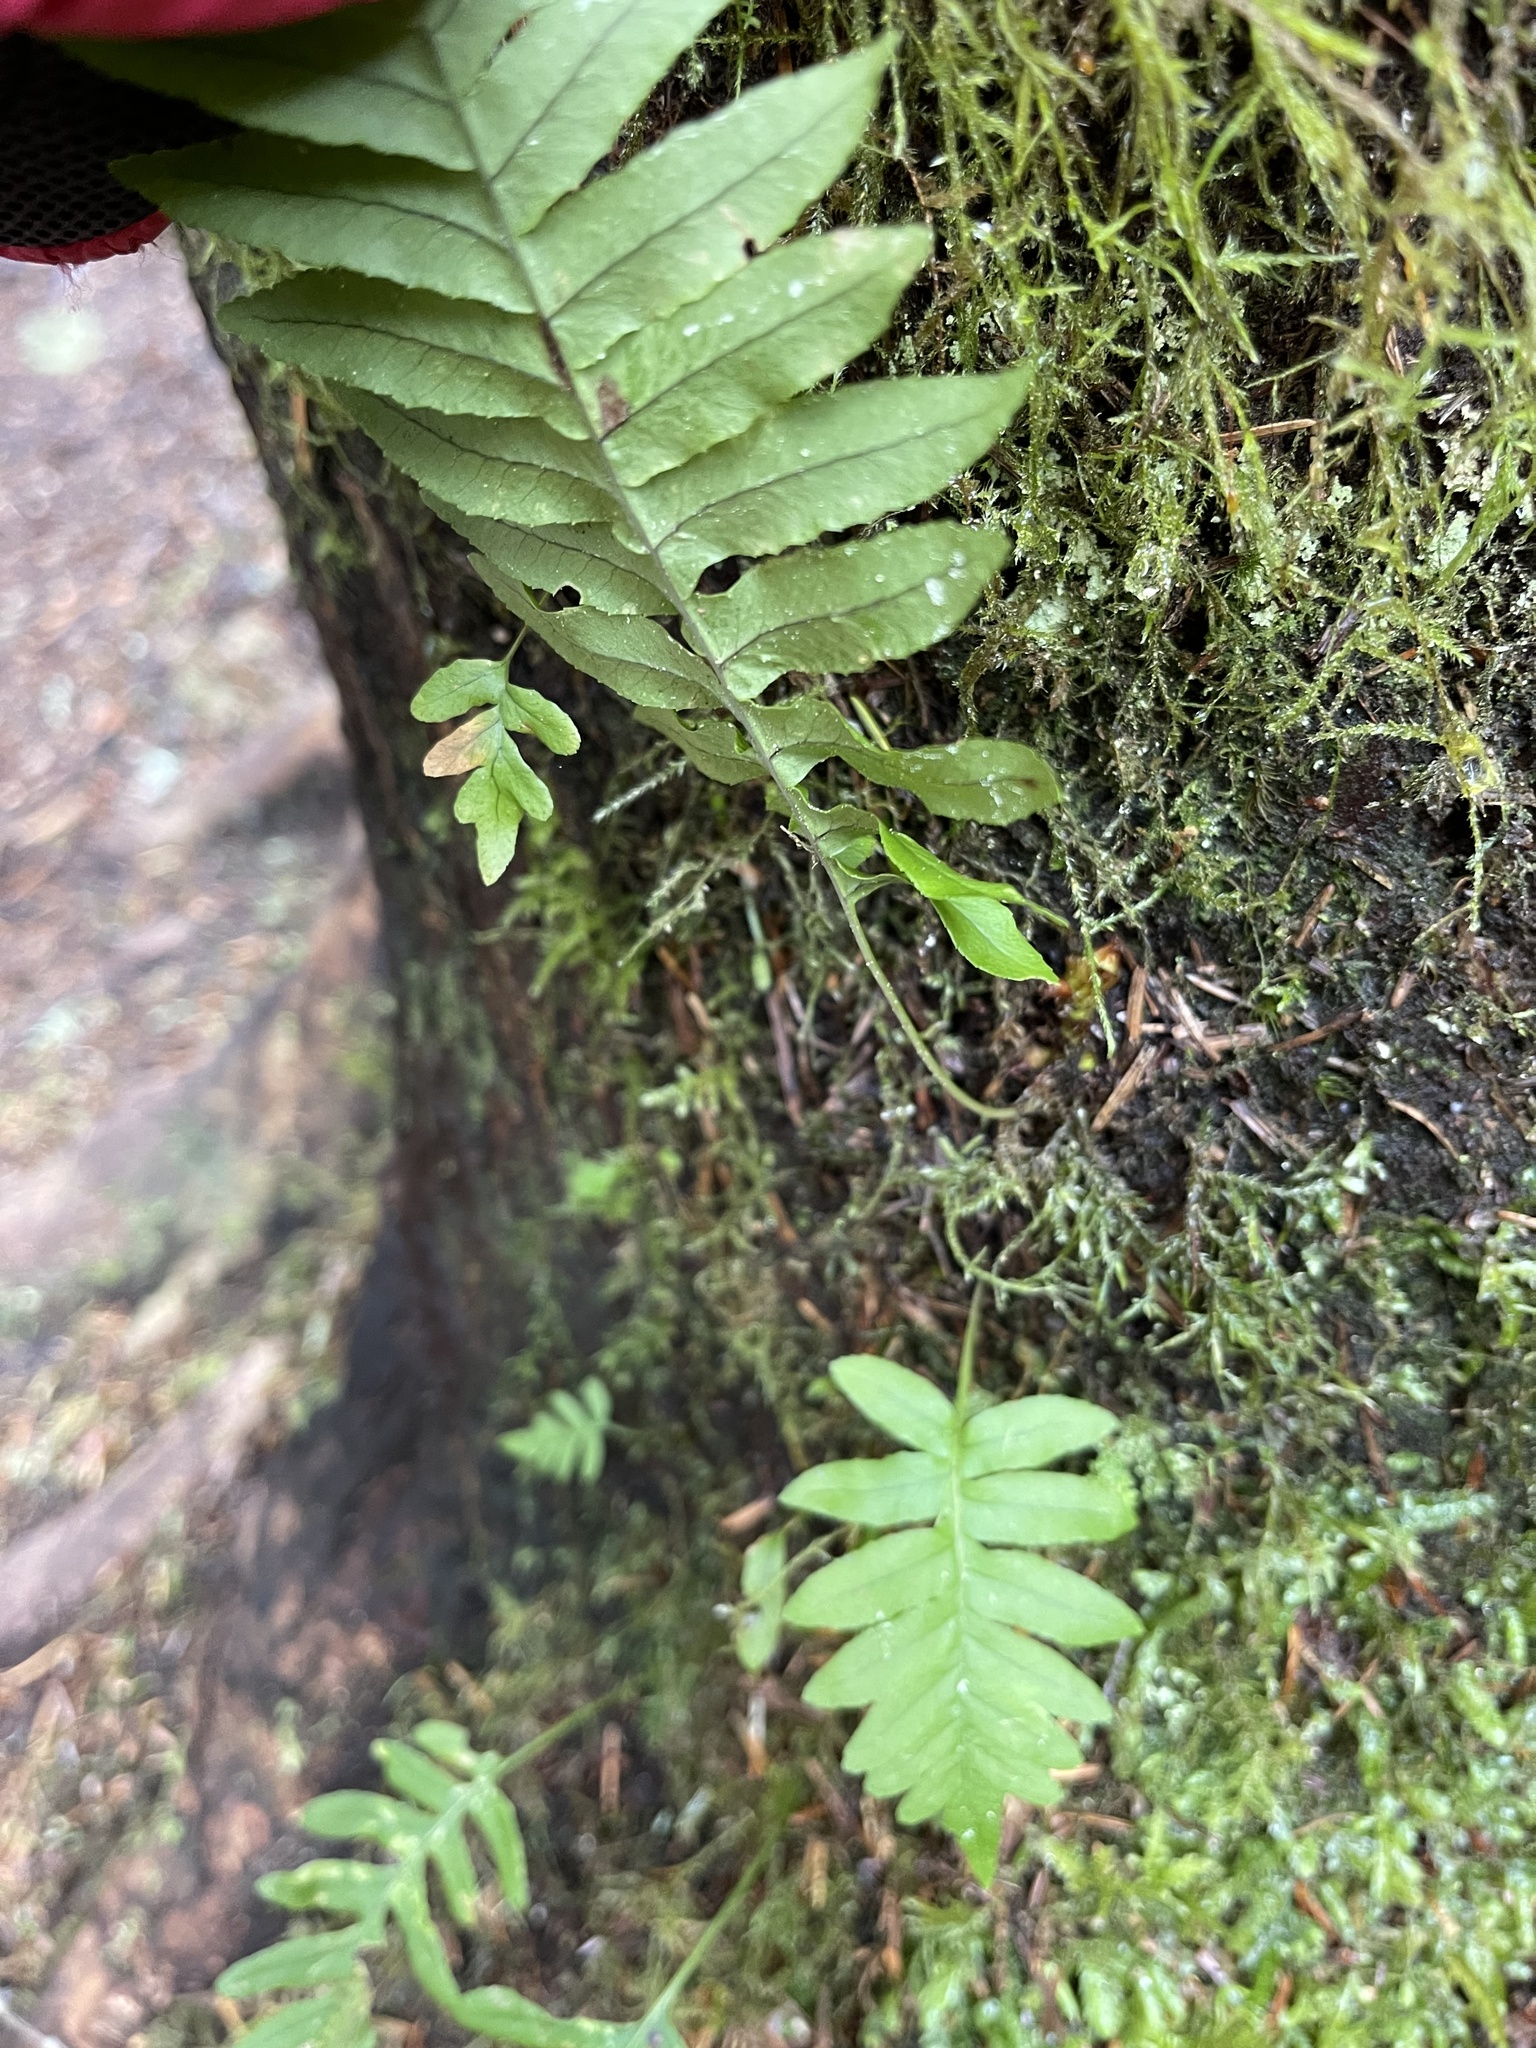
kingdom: Plantae
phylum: Tracheophyta
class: Polypodiopsida
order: Polypodiales
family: Polypodiaceae
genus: Polypodium
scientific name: Polypodium glycyrrhiza
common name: Licorice fern
